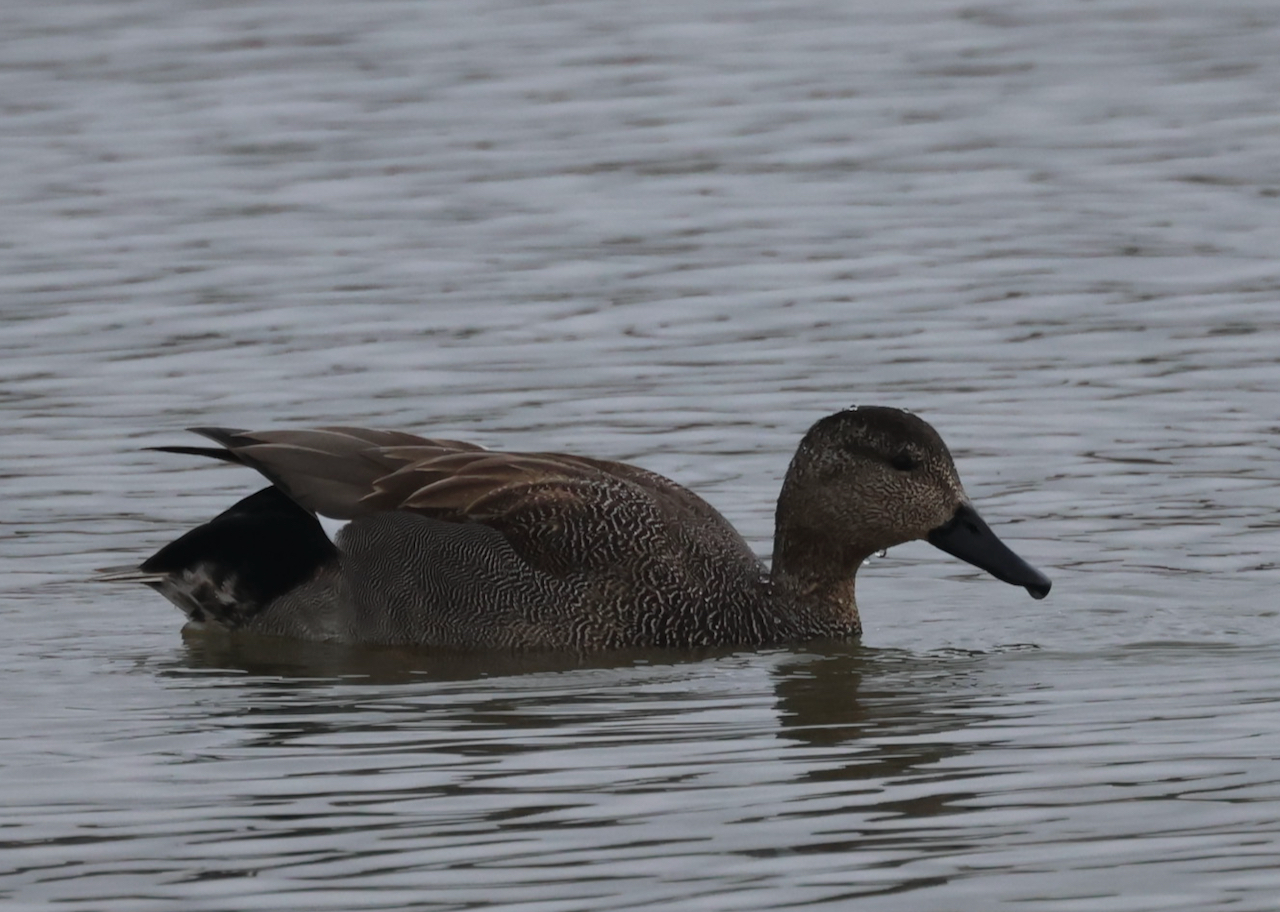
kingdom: Animalia
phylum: Chordata
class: Aves
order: Anseriformes
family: Anatidae
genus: Mareca
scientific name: Mareca strepera
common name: Gadwall
